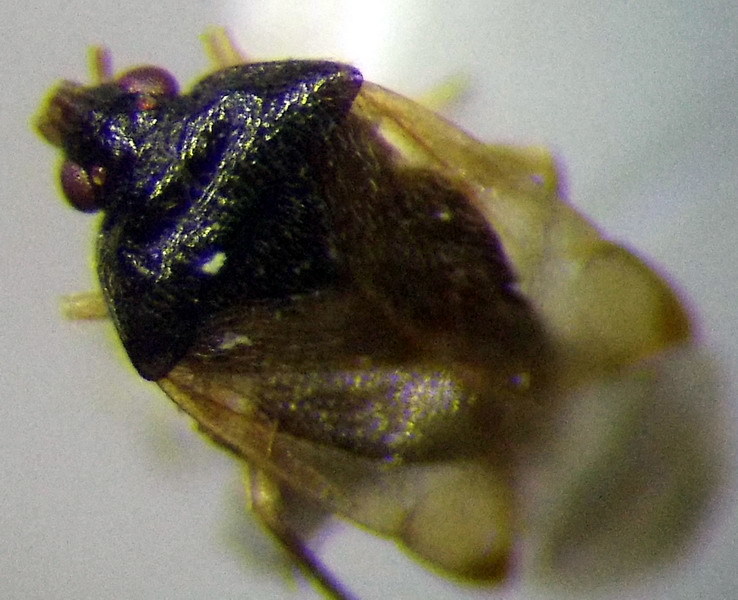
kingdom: Animalia
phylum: Arthropoda
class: Insecta
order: Hemiptera
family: Anthocoridae
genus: Orius
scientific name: Orius minutus
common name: Minute pirate bug
